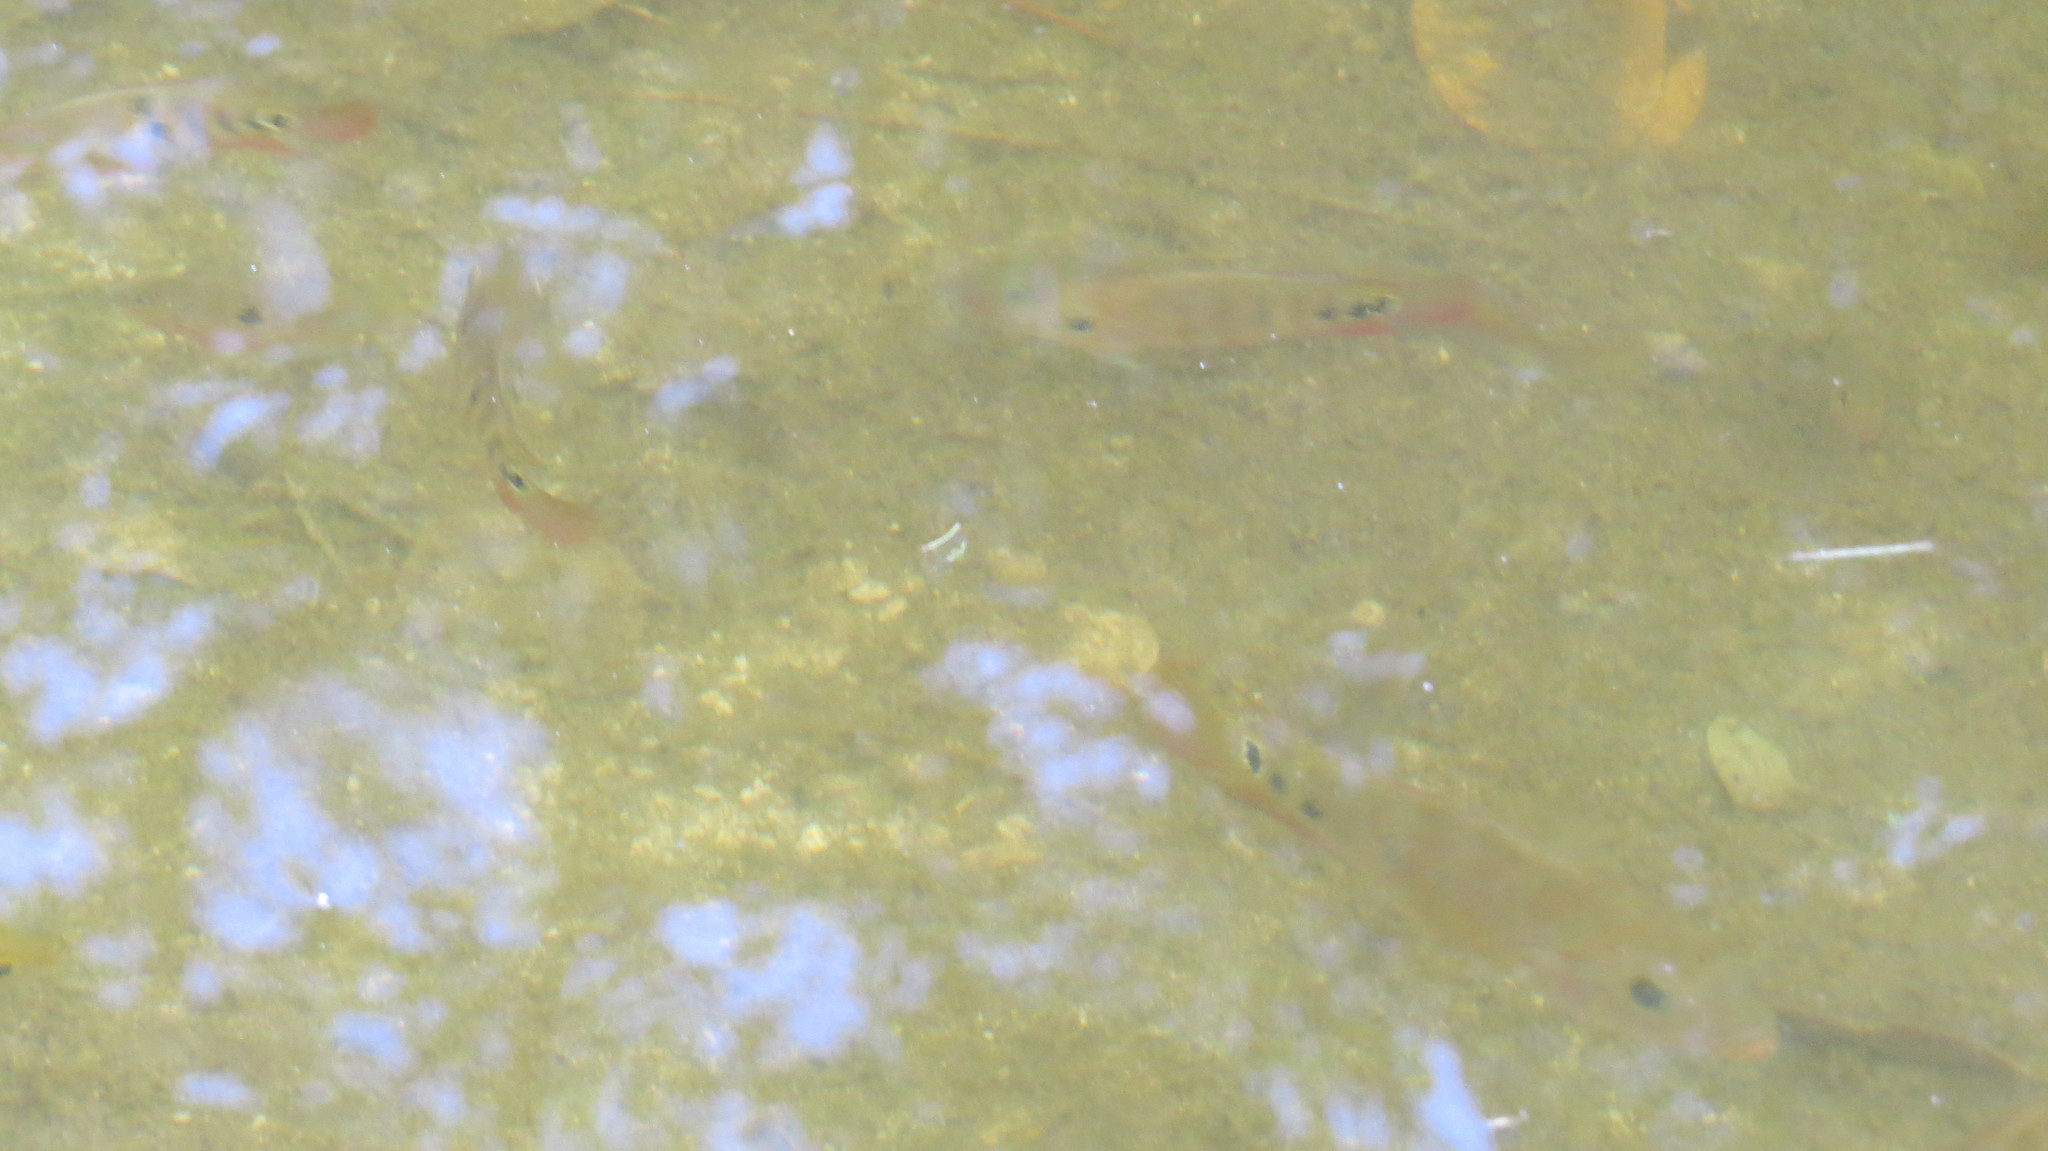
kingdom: Animalia
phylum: Chordata
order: Perciformes
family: Cichlidae
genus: Mayaheros
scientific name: Mayaheros urophthalmus
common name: Mayan cichlid
